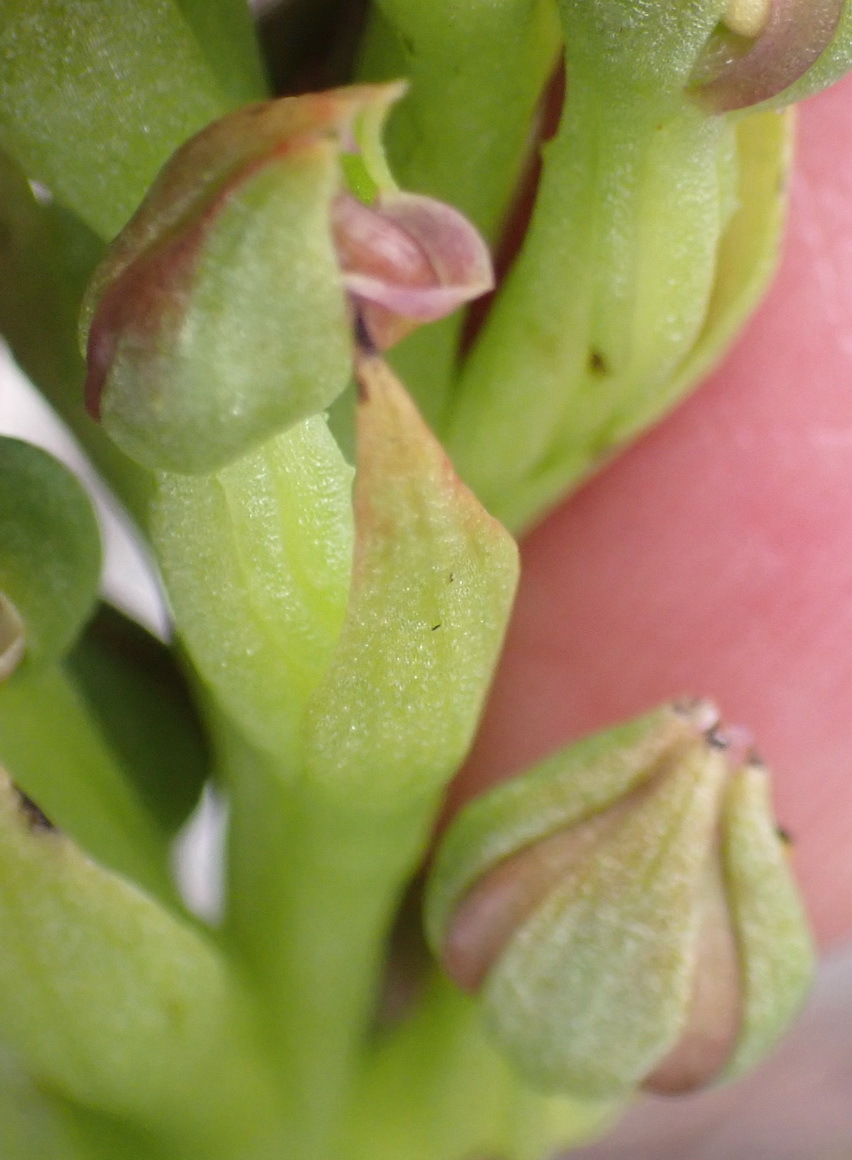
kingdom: Plantae
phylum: Tracheophyta
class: Liliopsida
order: Asparagales
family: Orchidaceae
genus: Evotella
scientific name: Evotella carnosa
